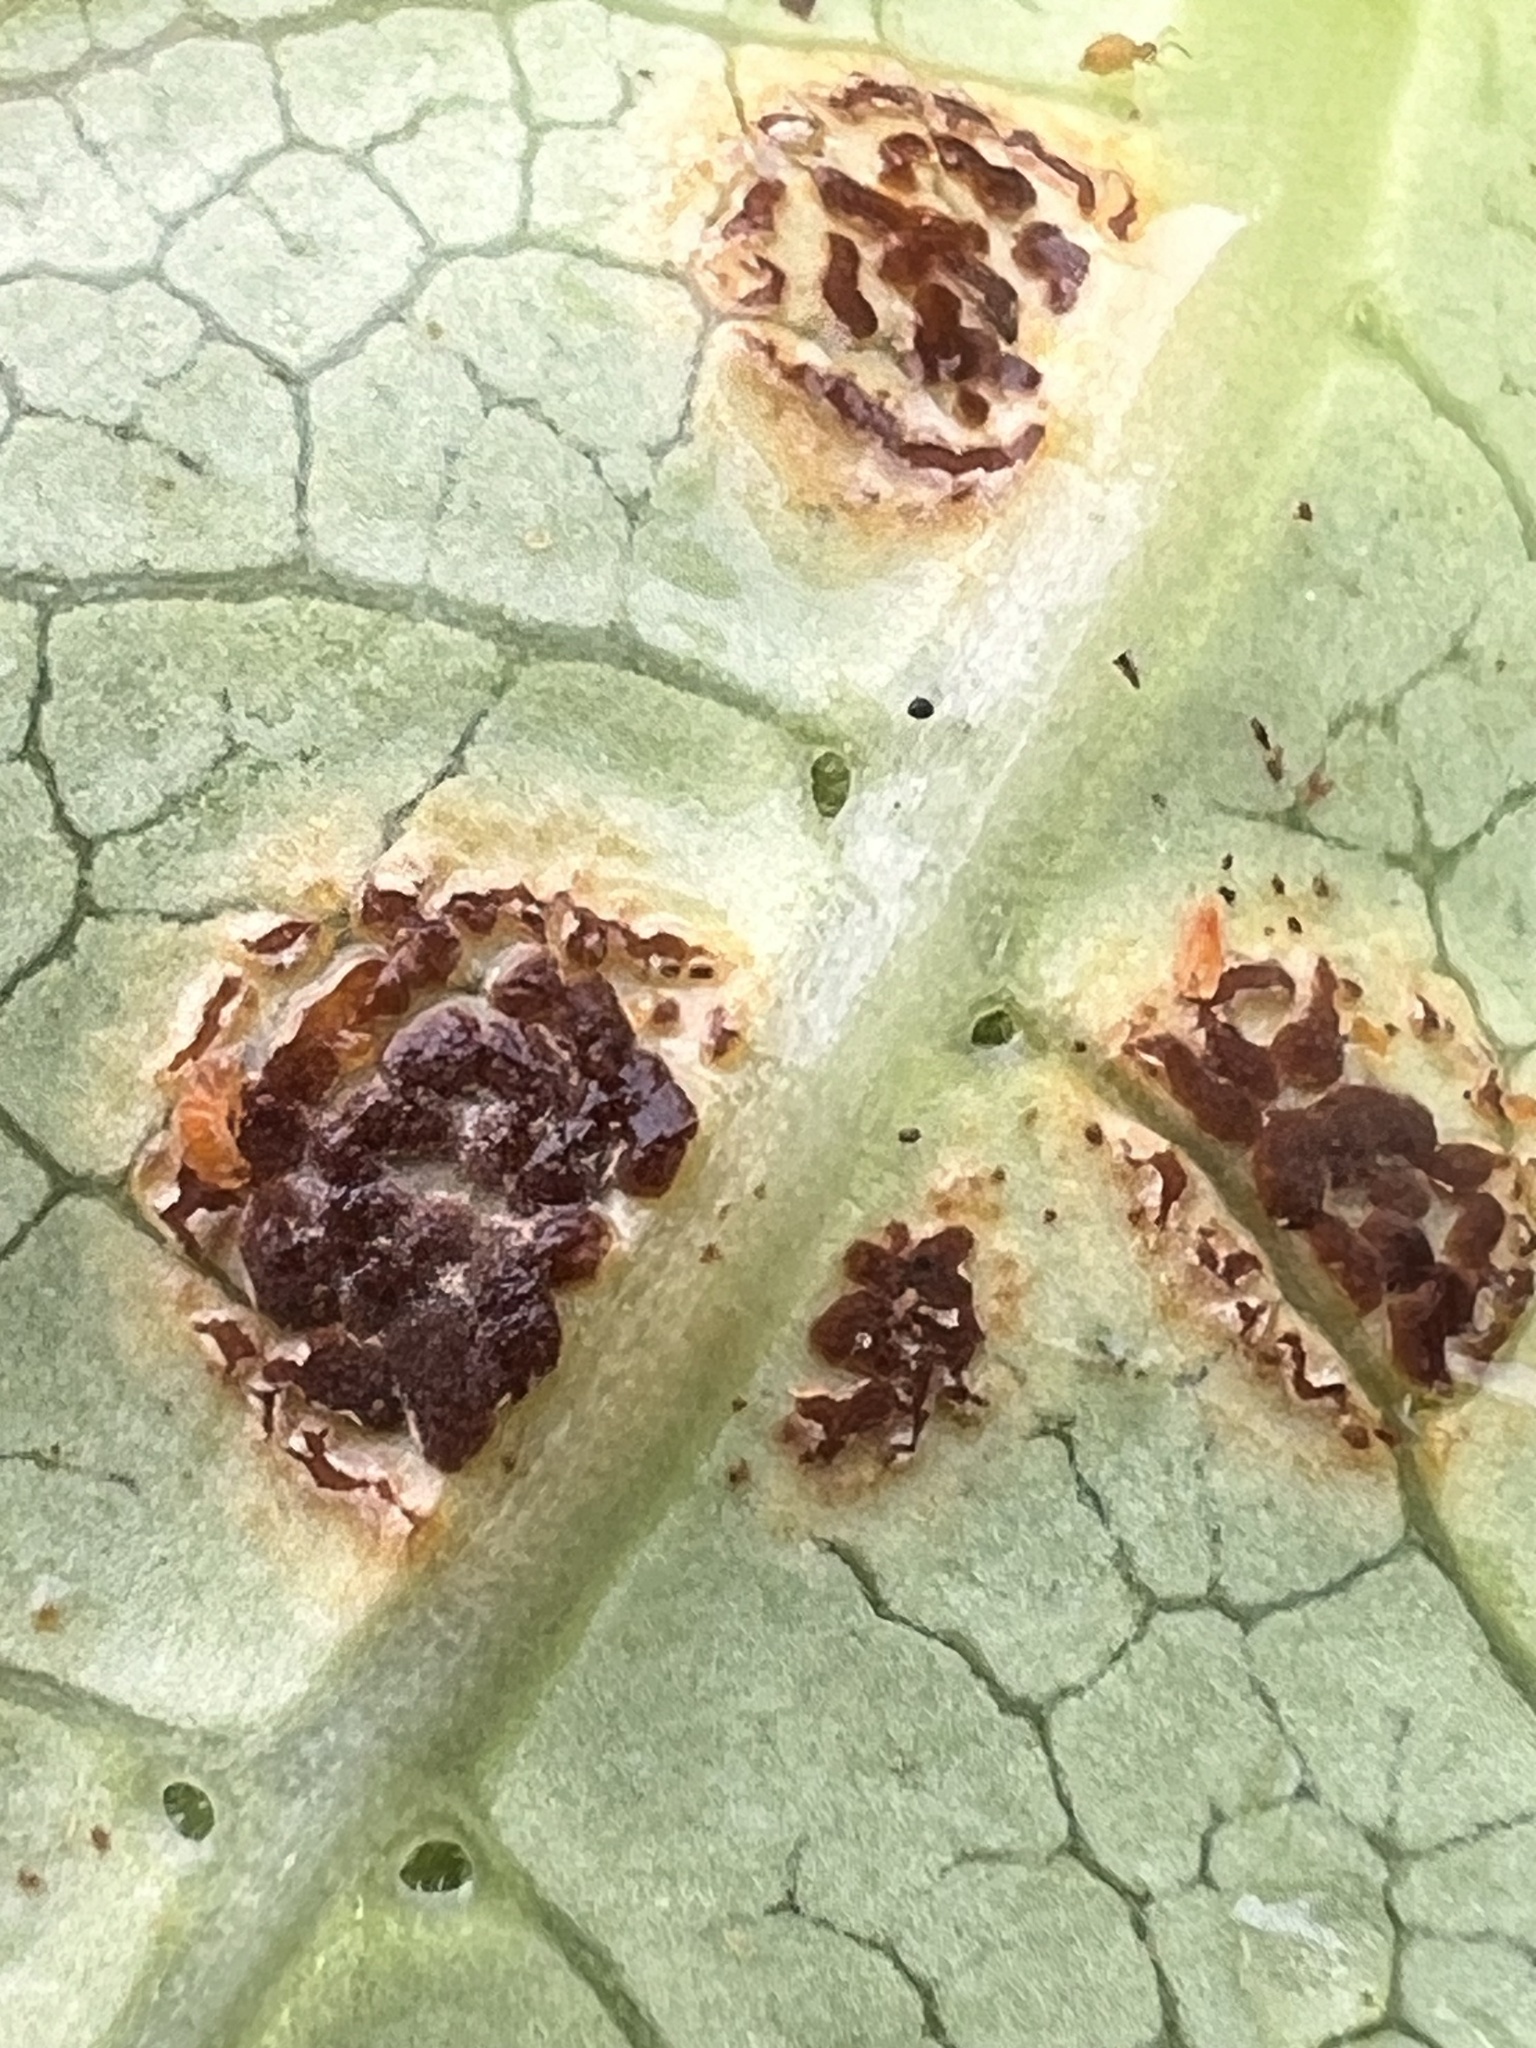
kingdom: Fungi
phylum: Basidiomycota
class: Pucciniomycetes
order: Pucciniales
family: Pucciniaceae
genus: Puccinia
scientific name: Puccinia coprosmae
